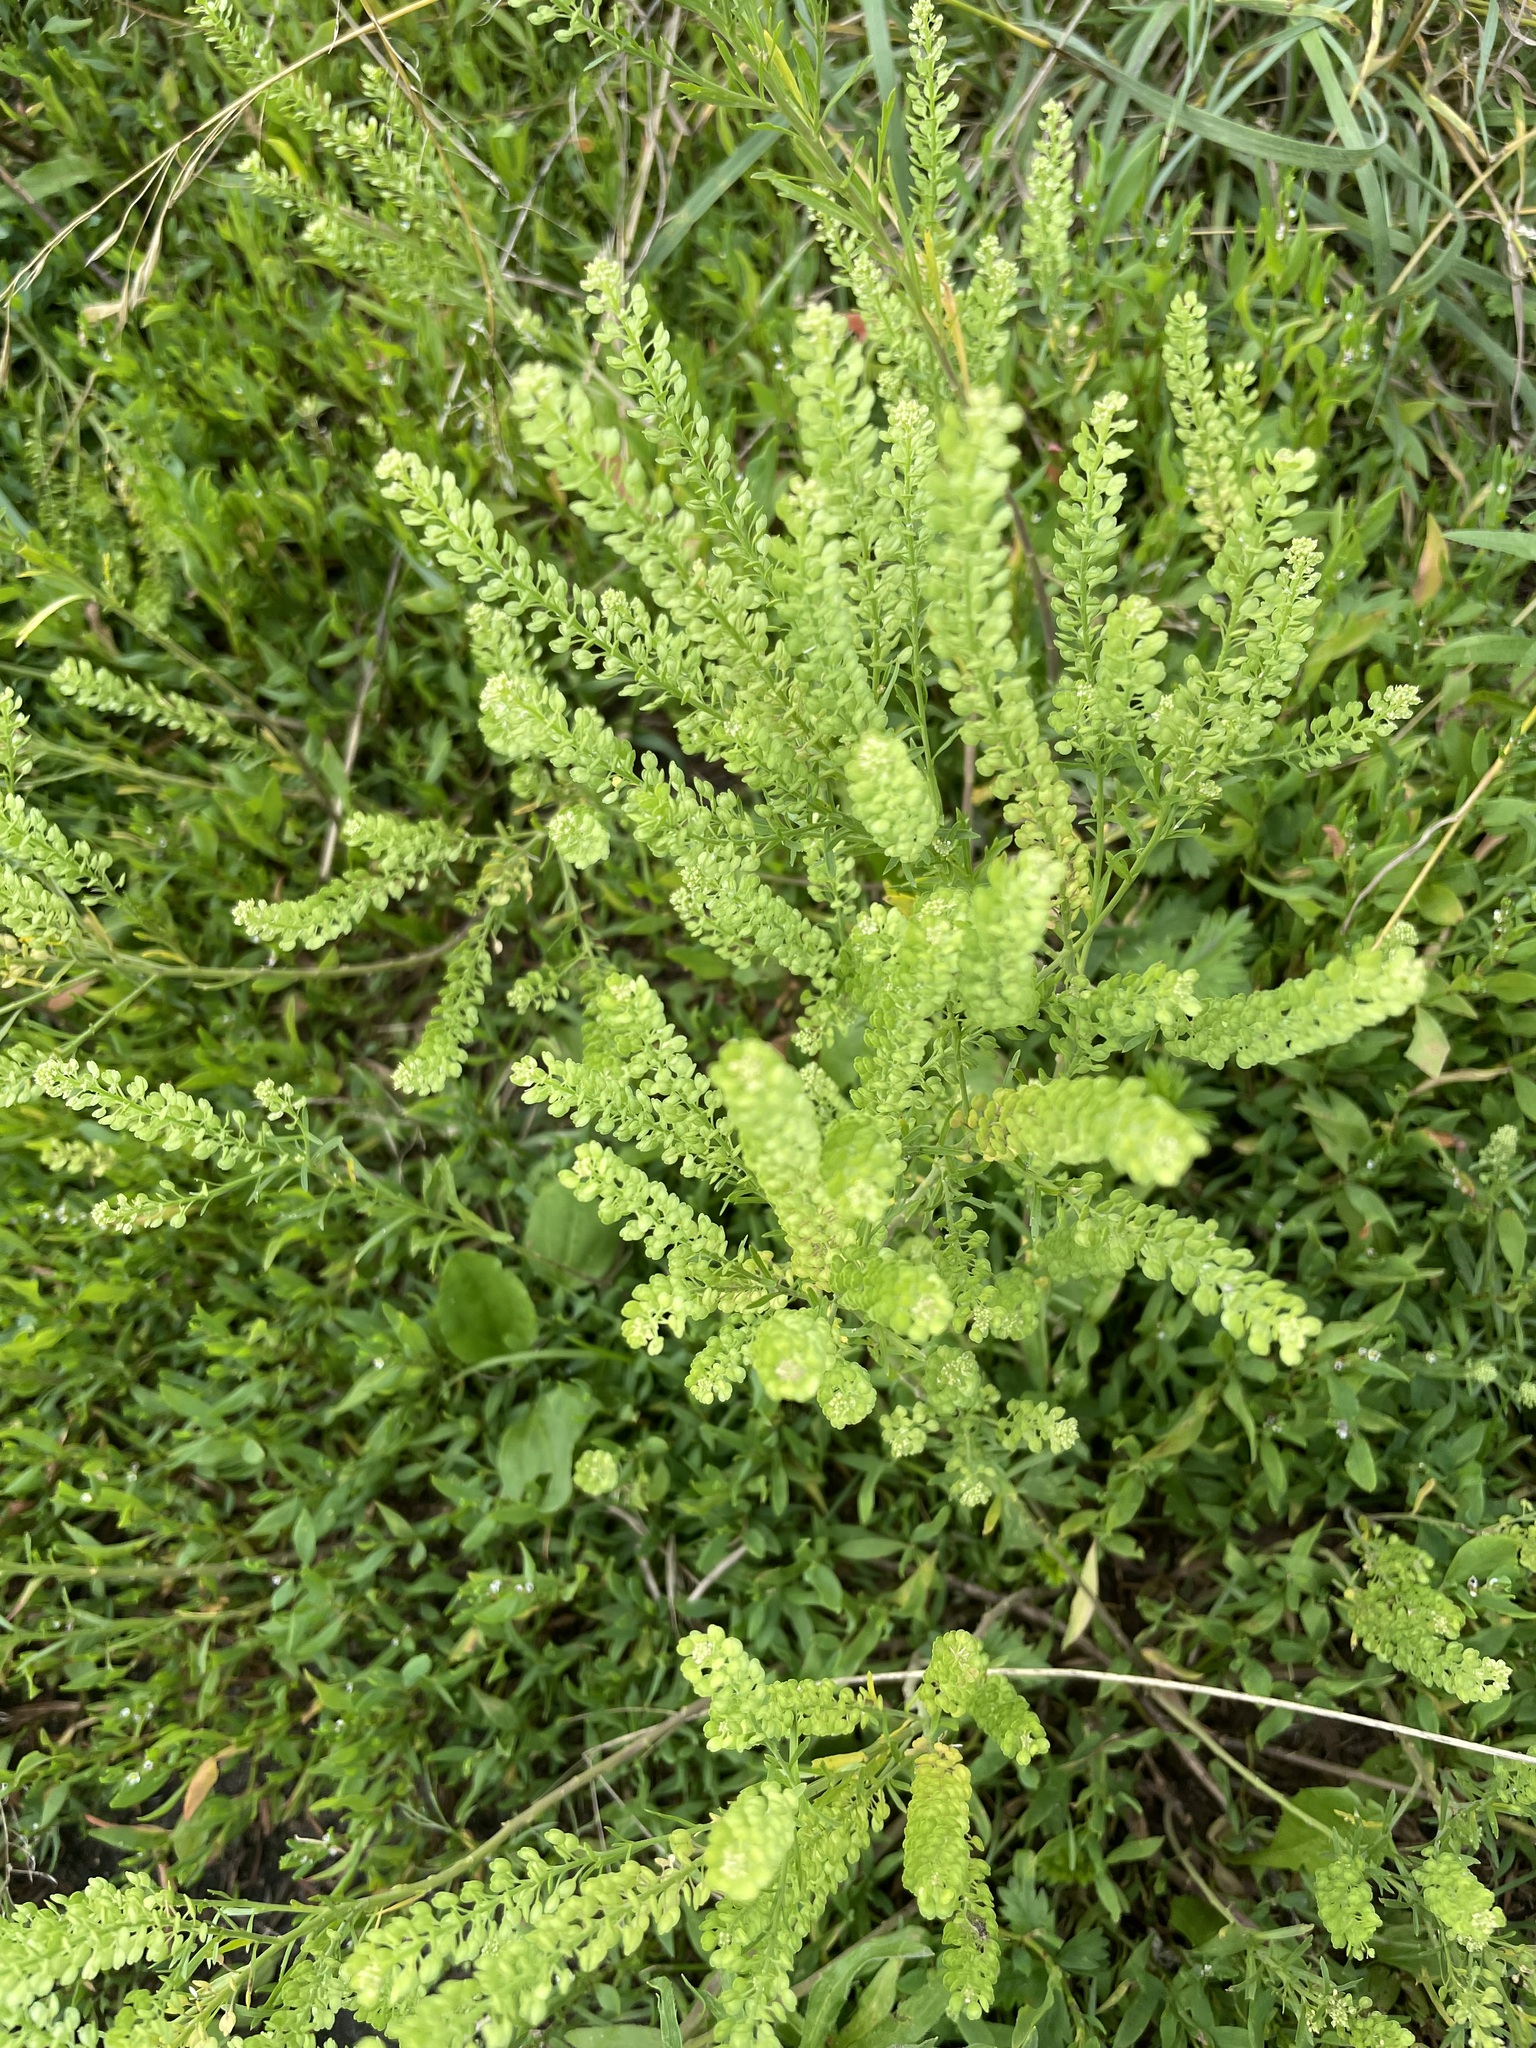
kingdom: Plantae
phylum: Tracheophyta
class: Magnoliopsida
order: Brassicales
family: Brassicaceae
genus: Lepidium
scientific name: Lepidium densiflorum
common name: Miner's pepperwort
